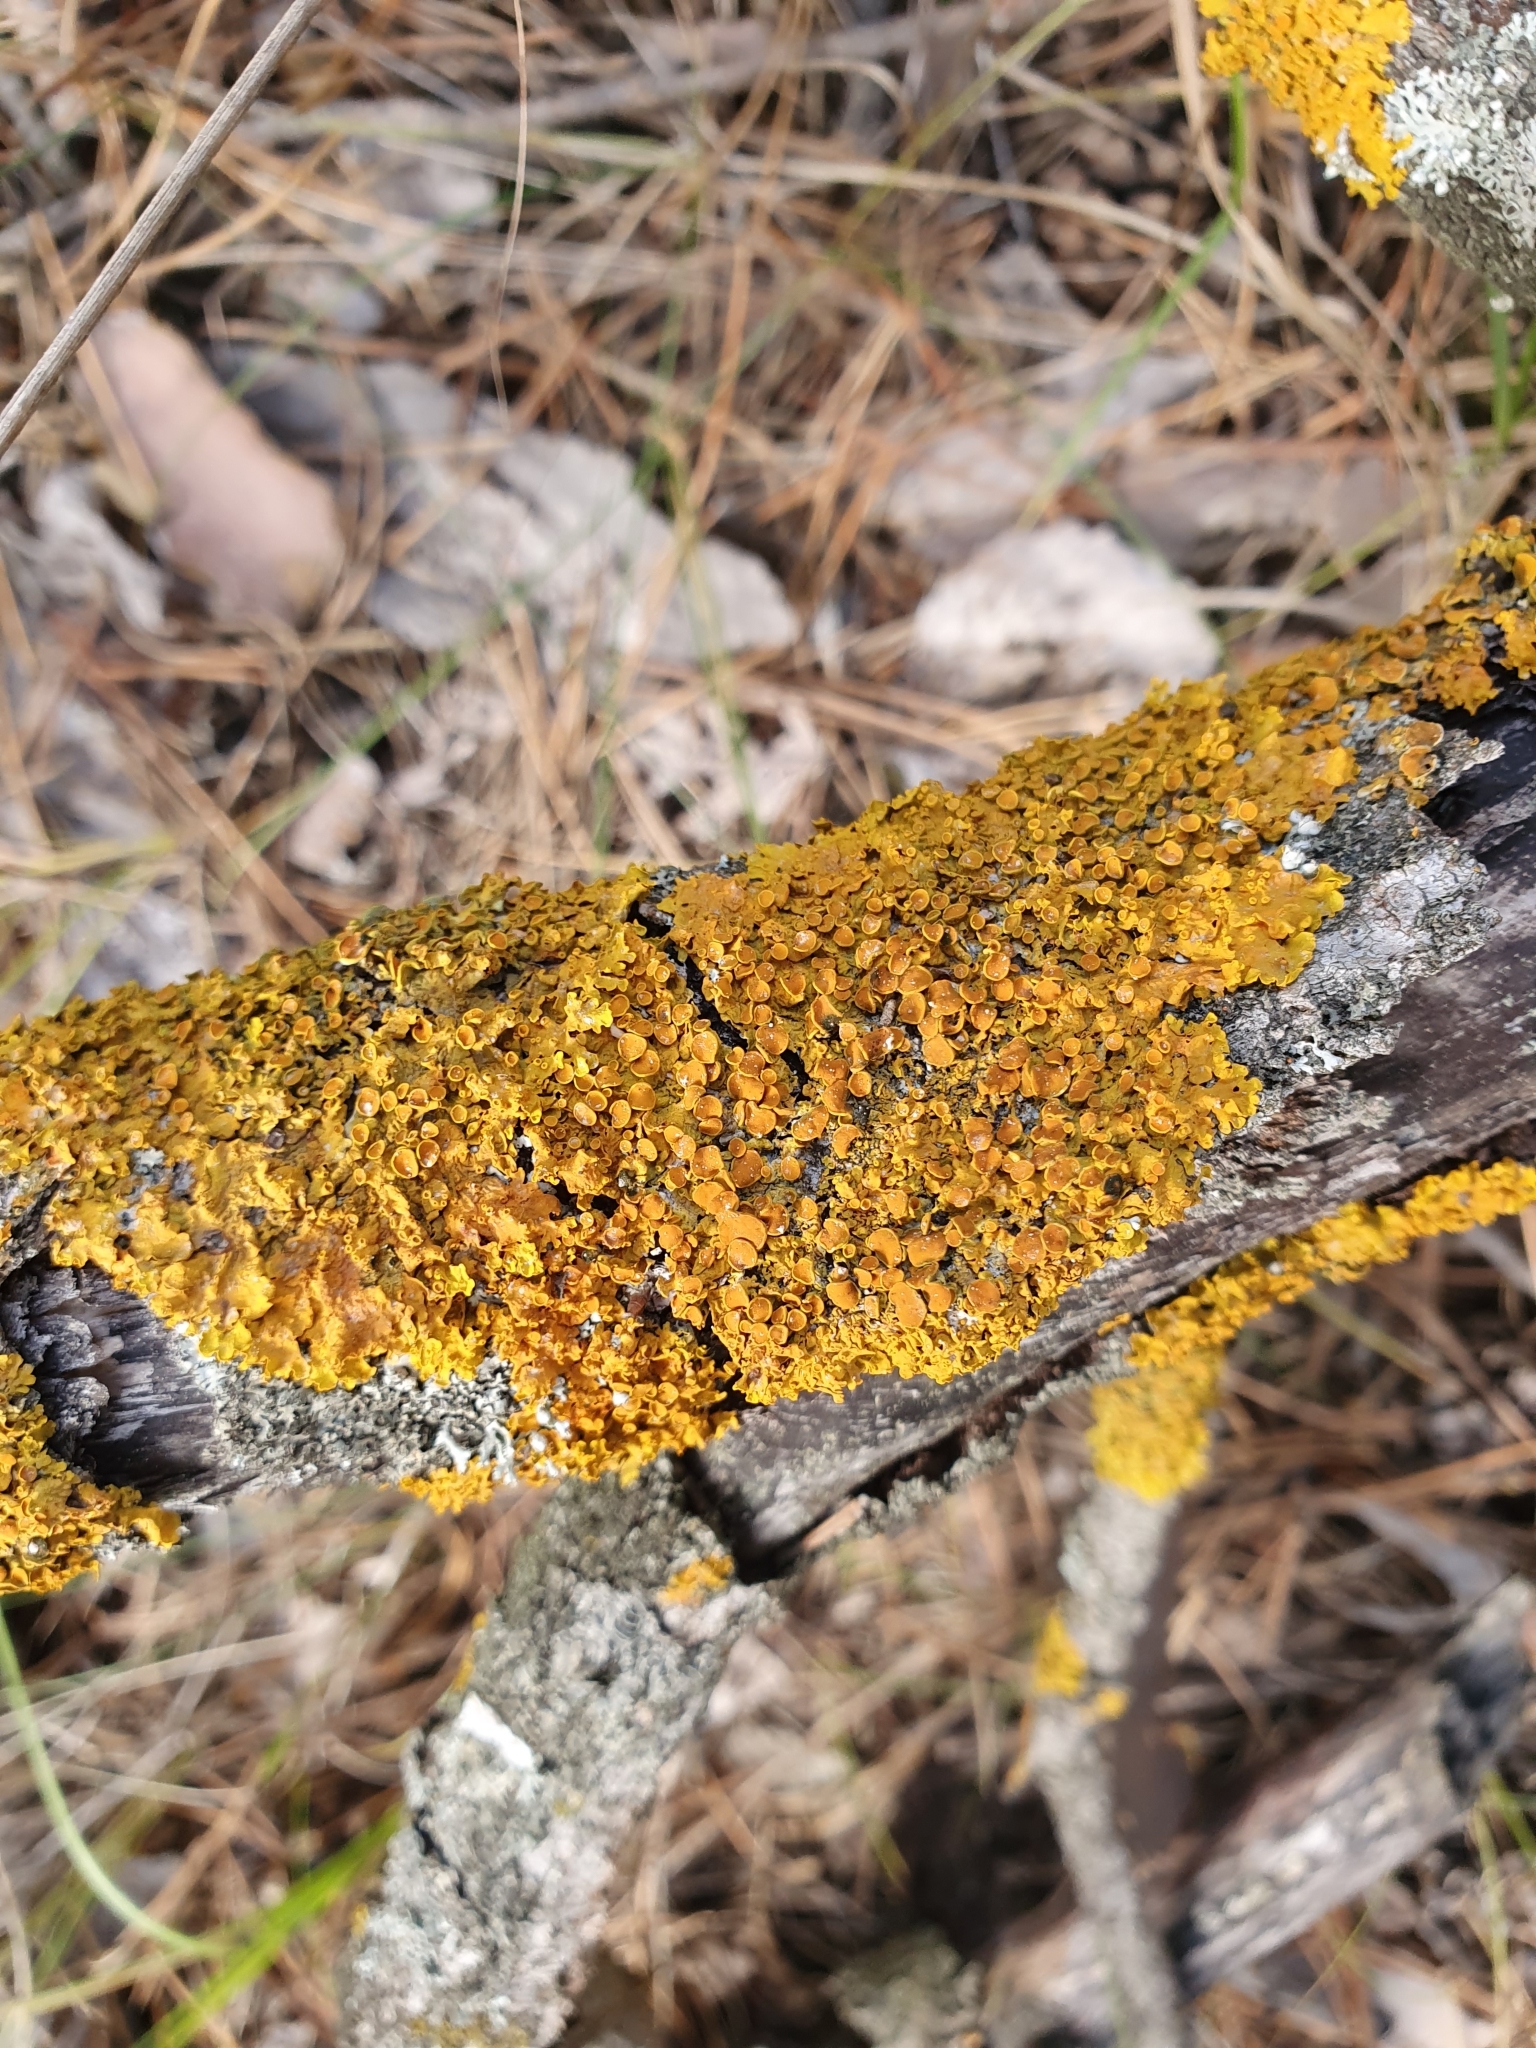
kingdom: Fungi
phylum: Ascomycota
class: Lecanoromycetes
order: Teloschistales
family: Teloschistaceae
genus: Xanthoria
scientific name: Xanthoria parietina
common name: Common orange lichen
